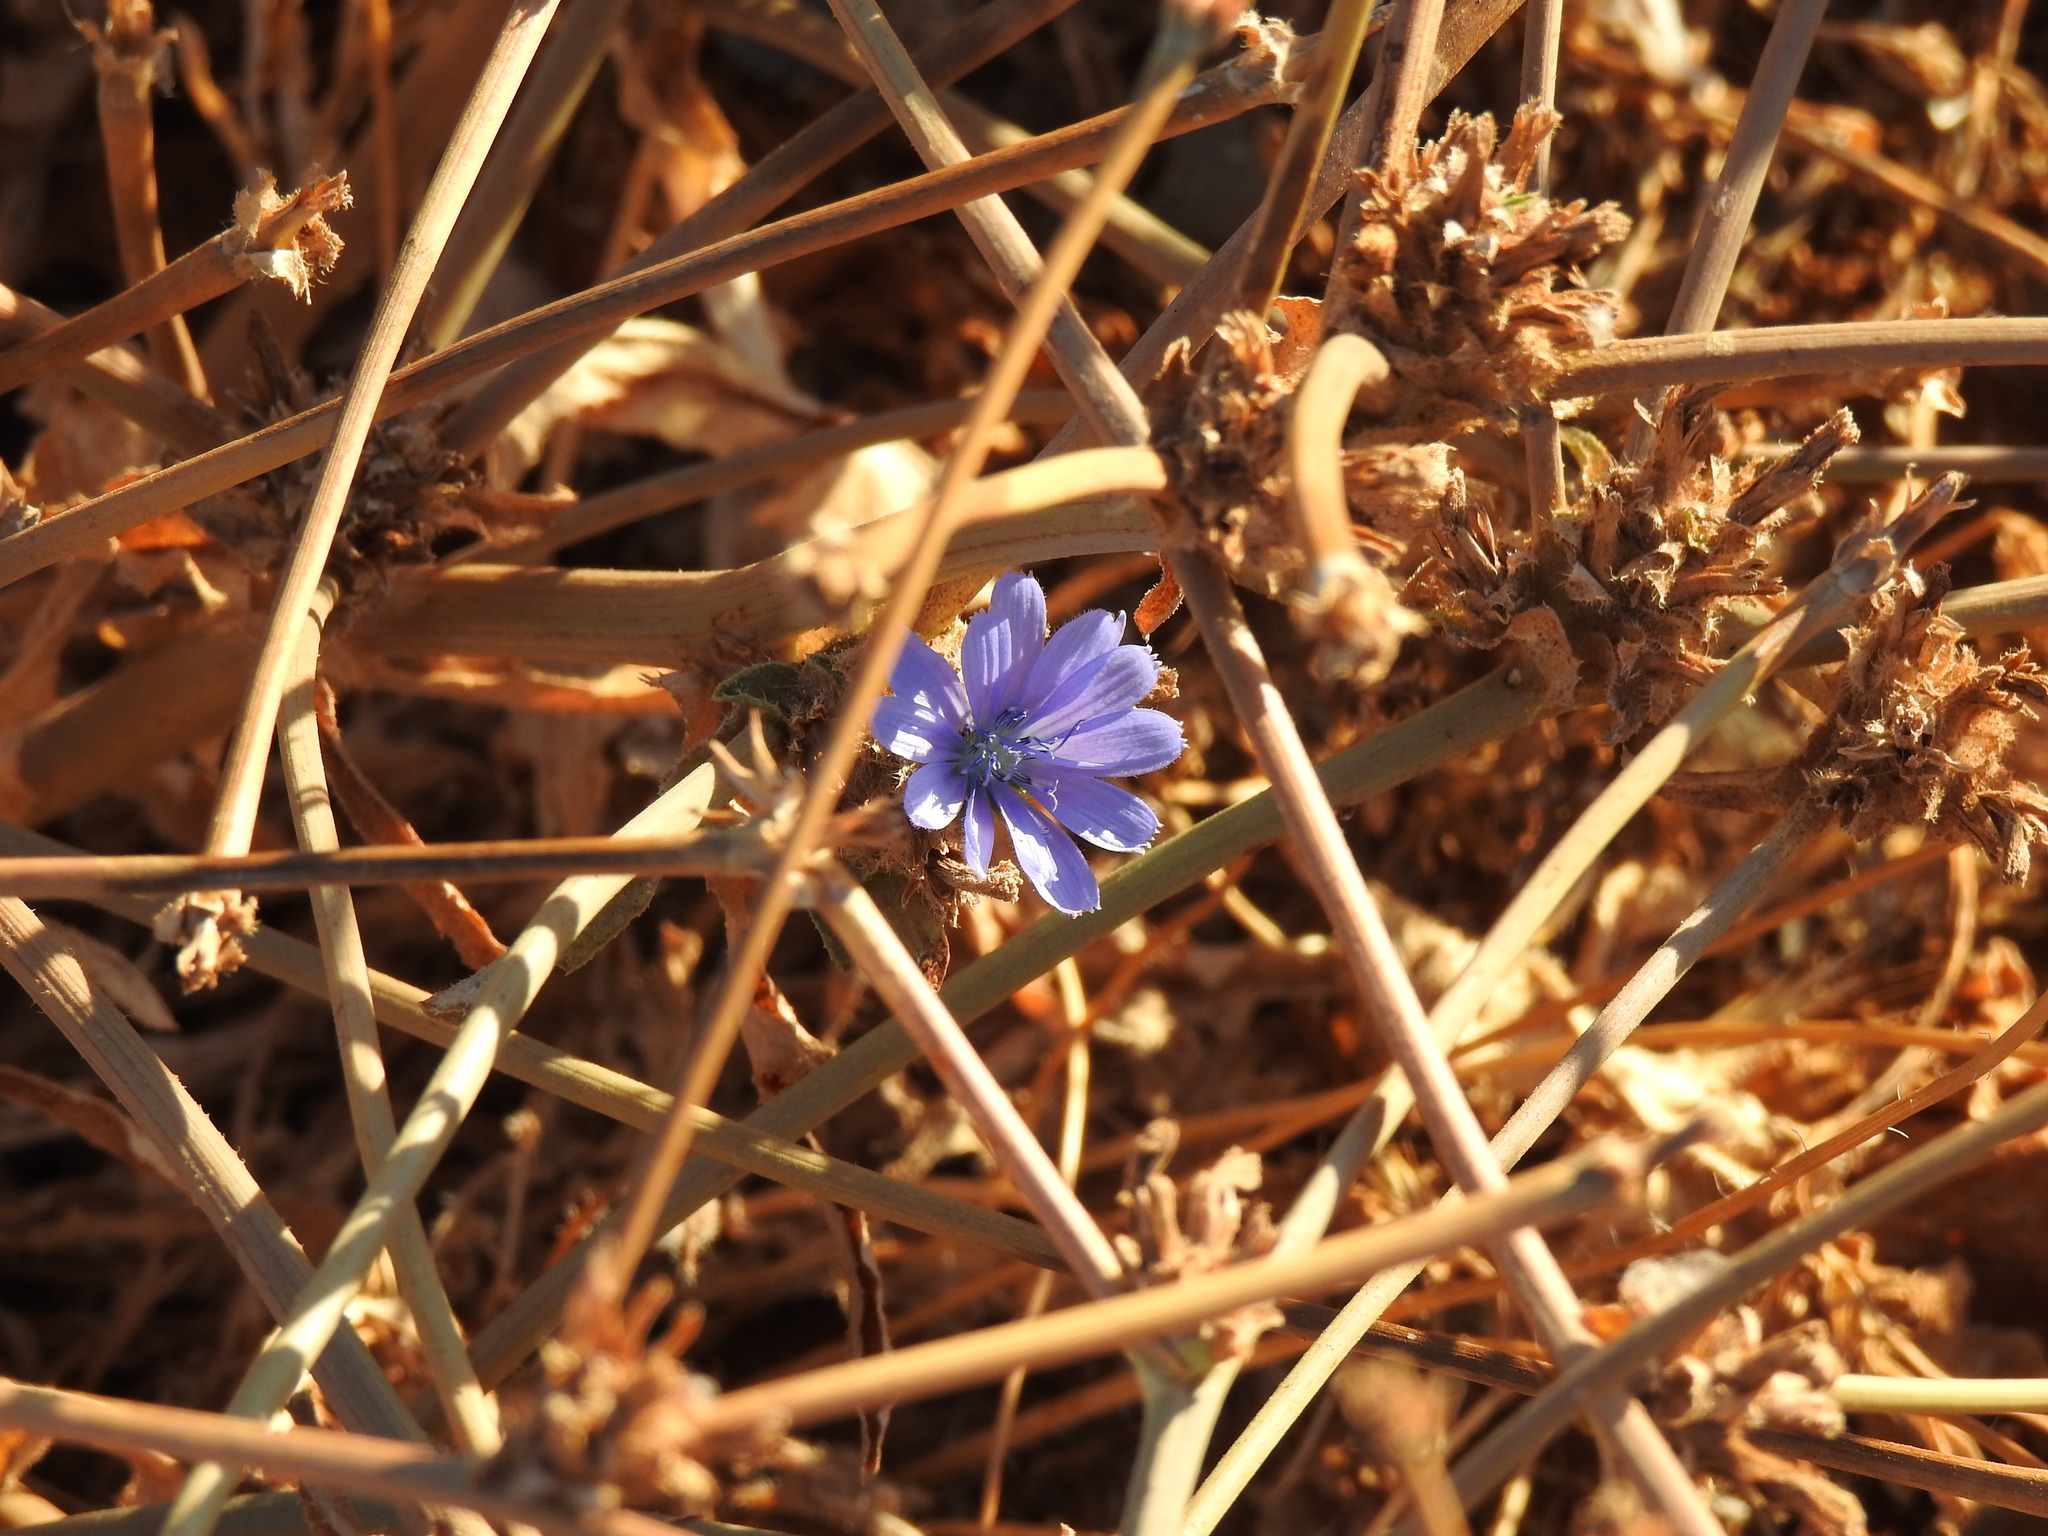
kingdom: Plantae
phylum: Tracheophyta
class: Magnoliopsida
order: Asterales
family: Asteraceae
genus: Cichorium
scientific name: Cichorium intybus
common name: Chicory
